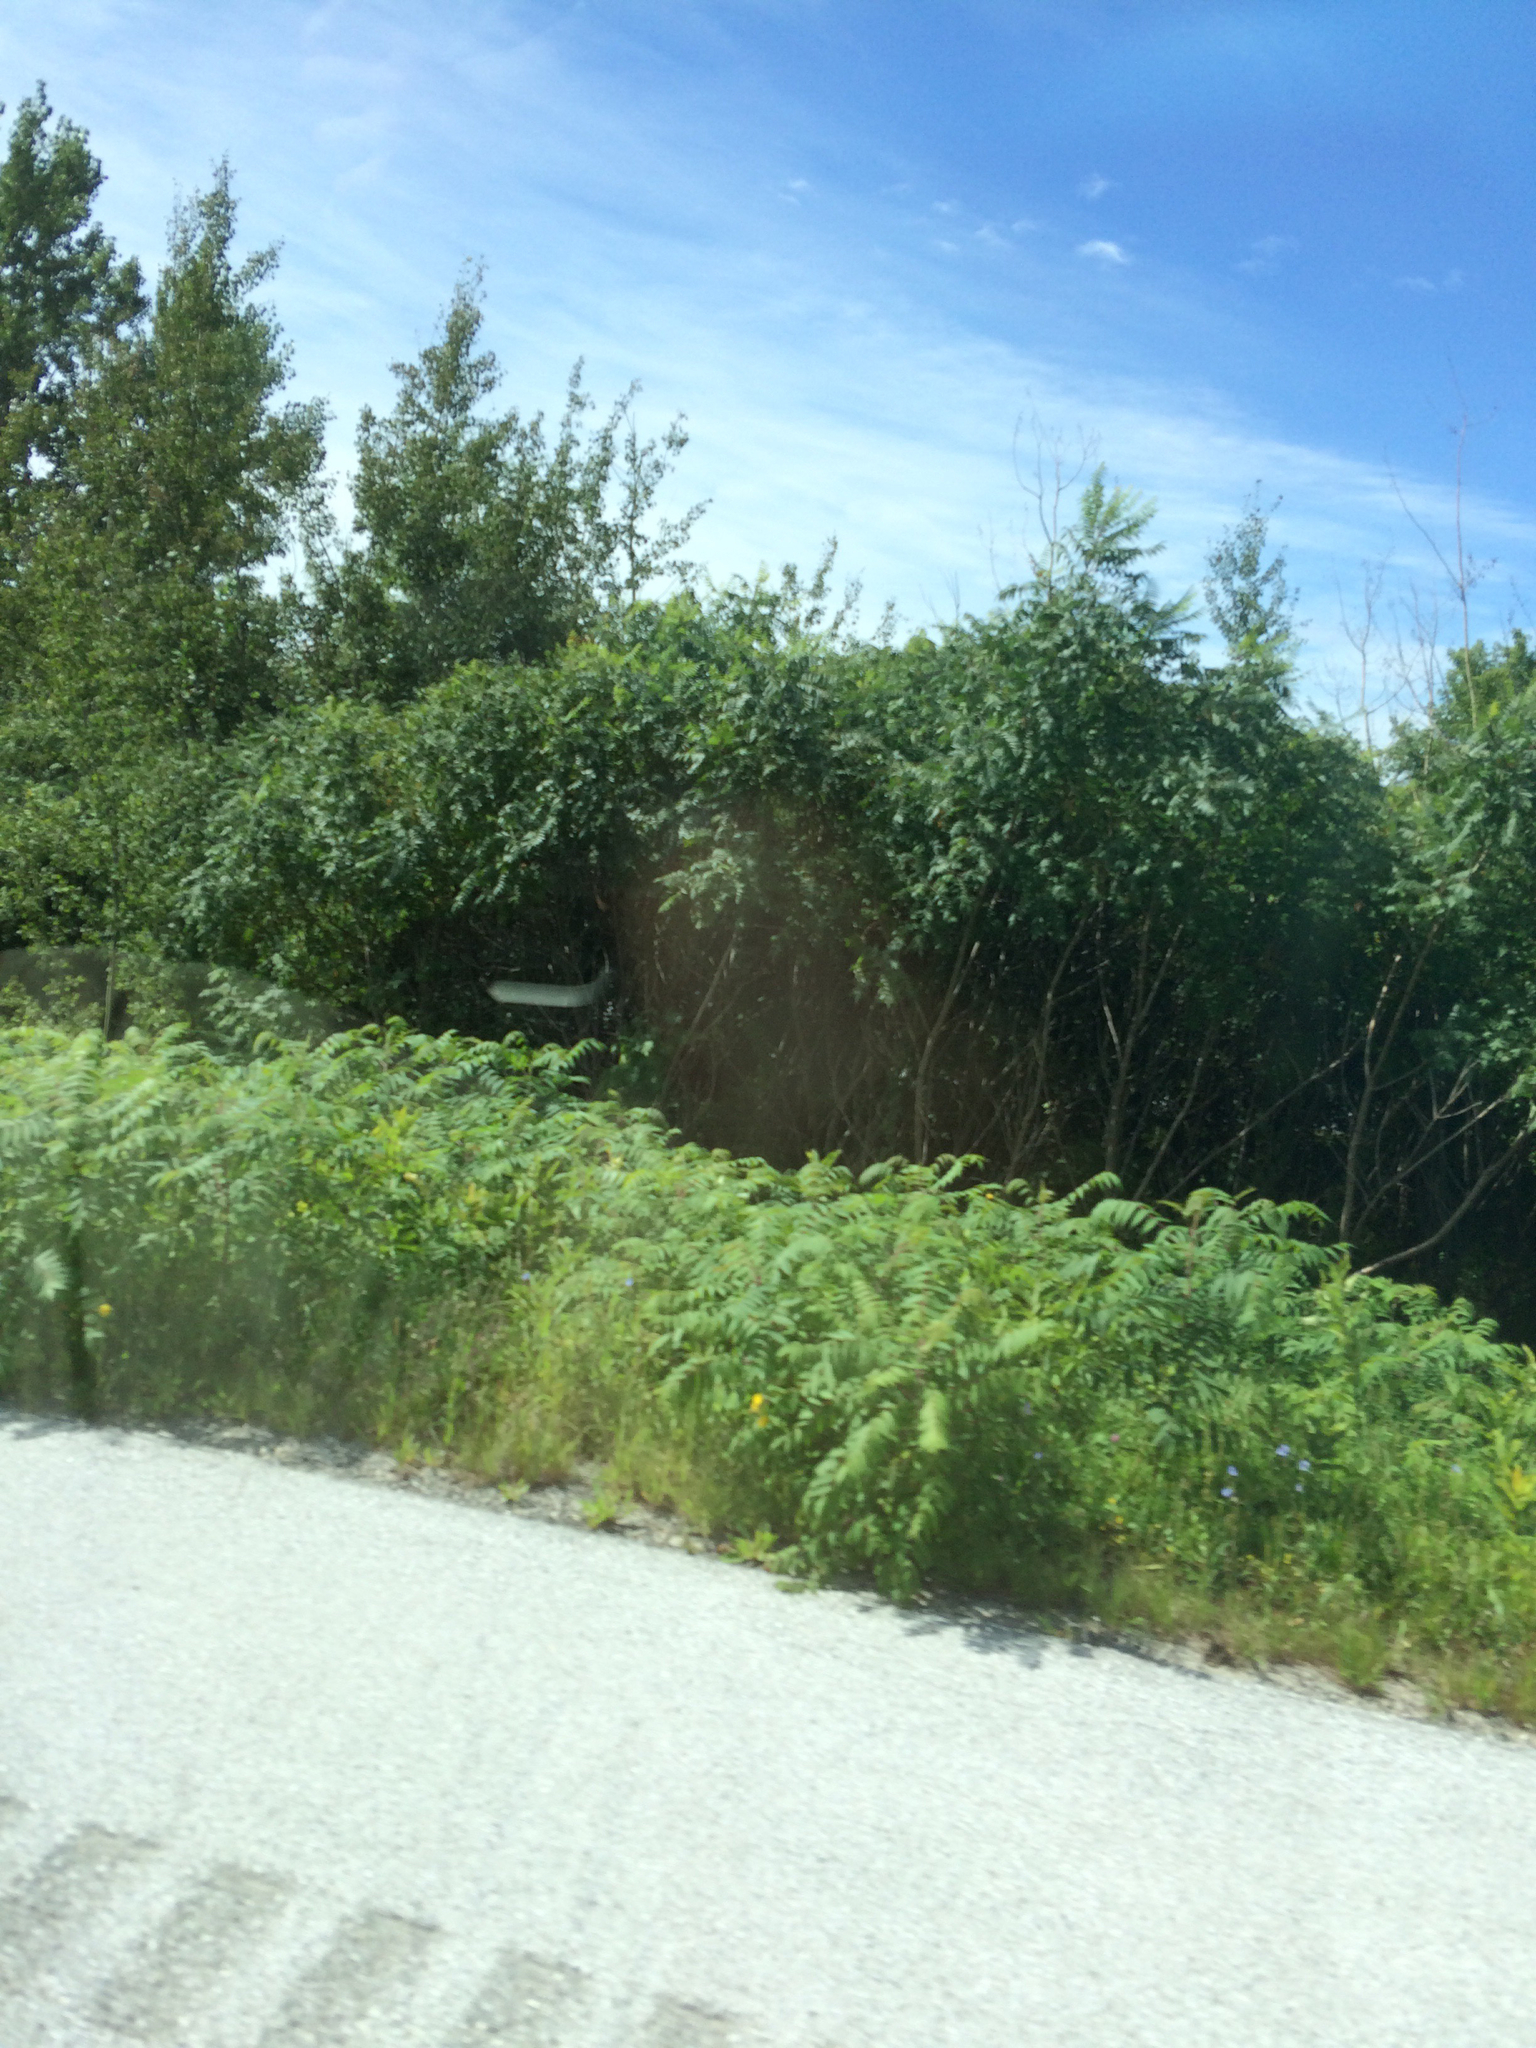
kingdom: Plantae
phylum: Tracheophyta
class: Magnoliopsida
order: Sapindales
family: Anacardiaceae
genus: Rhus
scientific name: Rhus typhina
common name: Staghorn sumac
